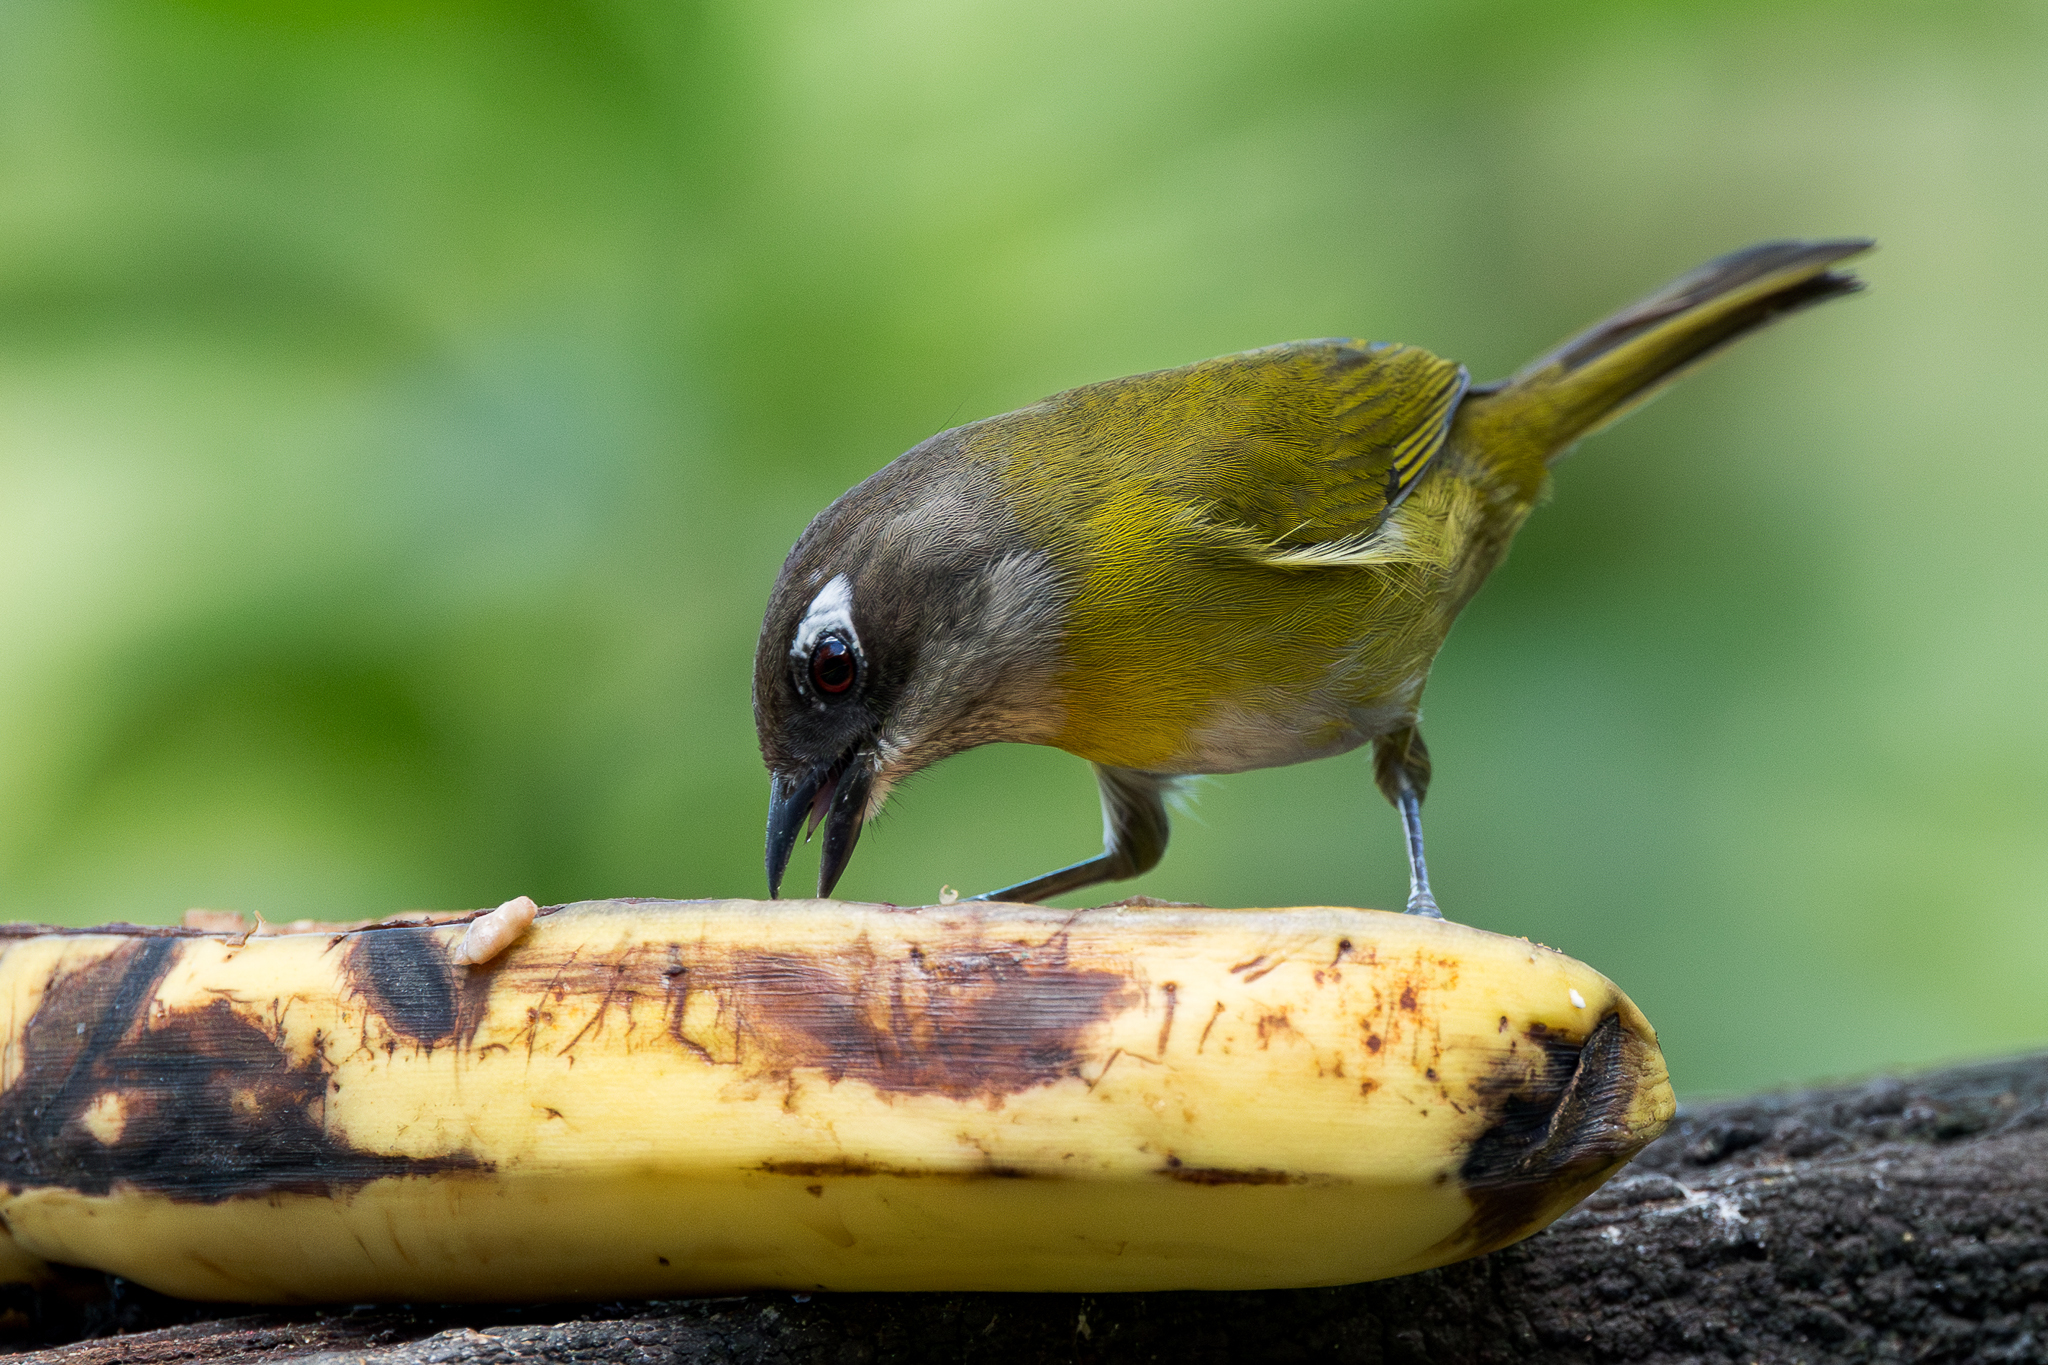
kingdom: Animalia
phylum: Chordata
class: Aves
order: Passeriformes
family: Passerellidae
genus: Chlorospingus
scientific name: Chlorospingus flavopectus
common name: Common chlorospingus
